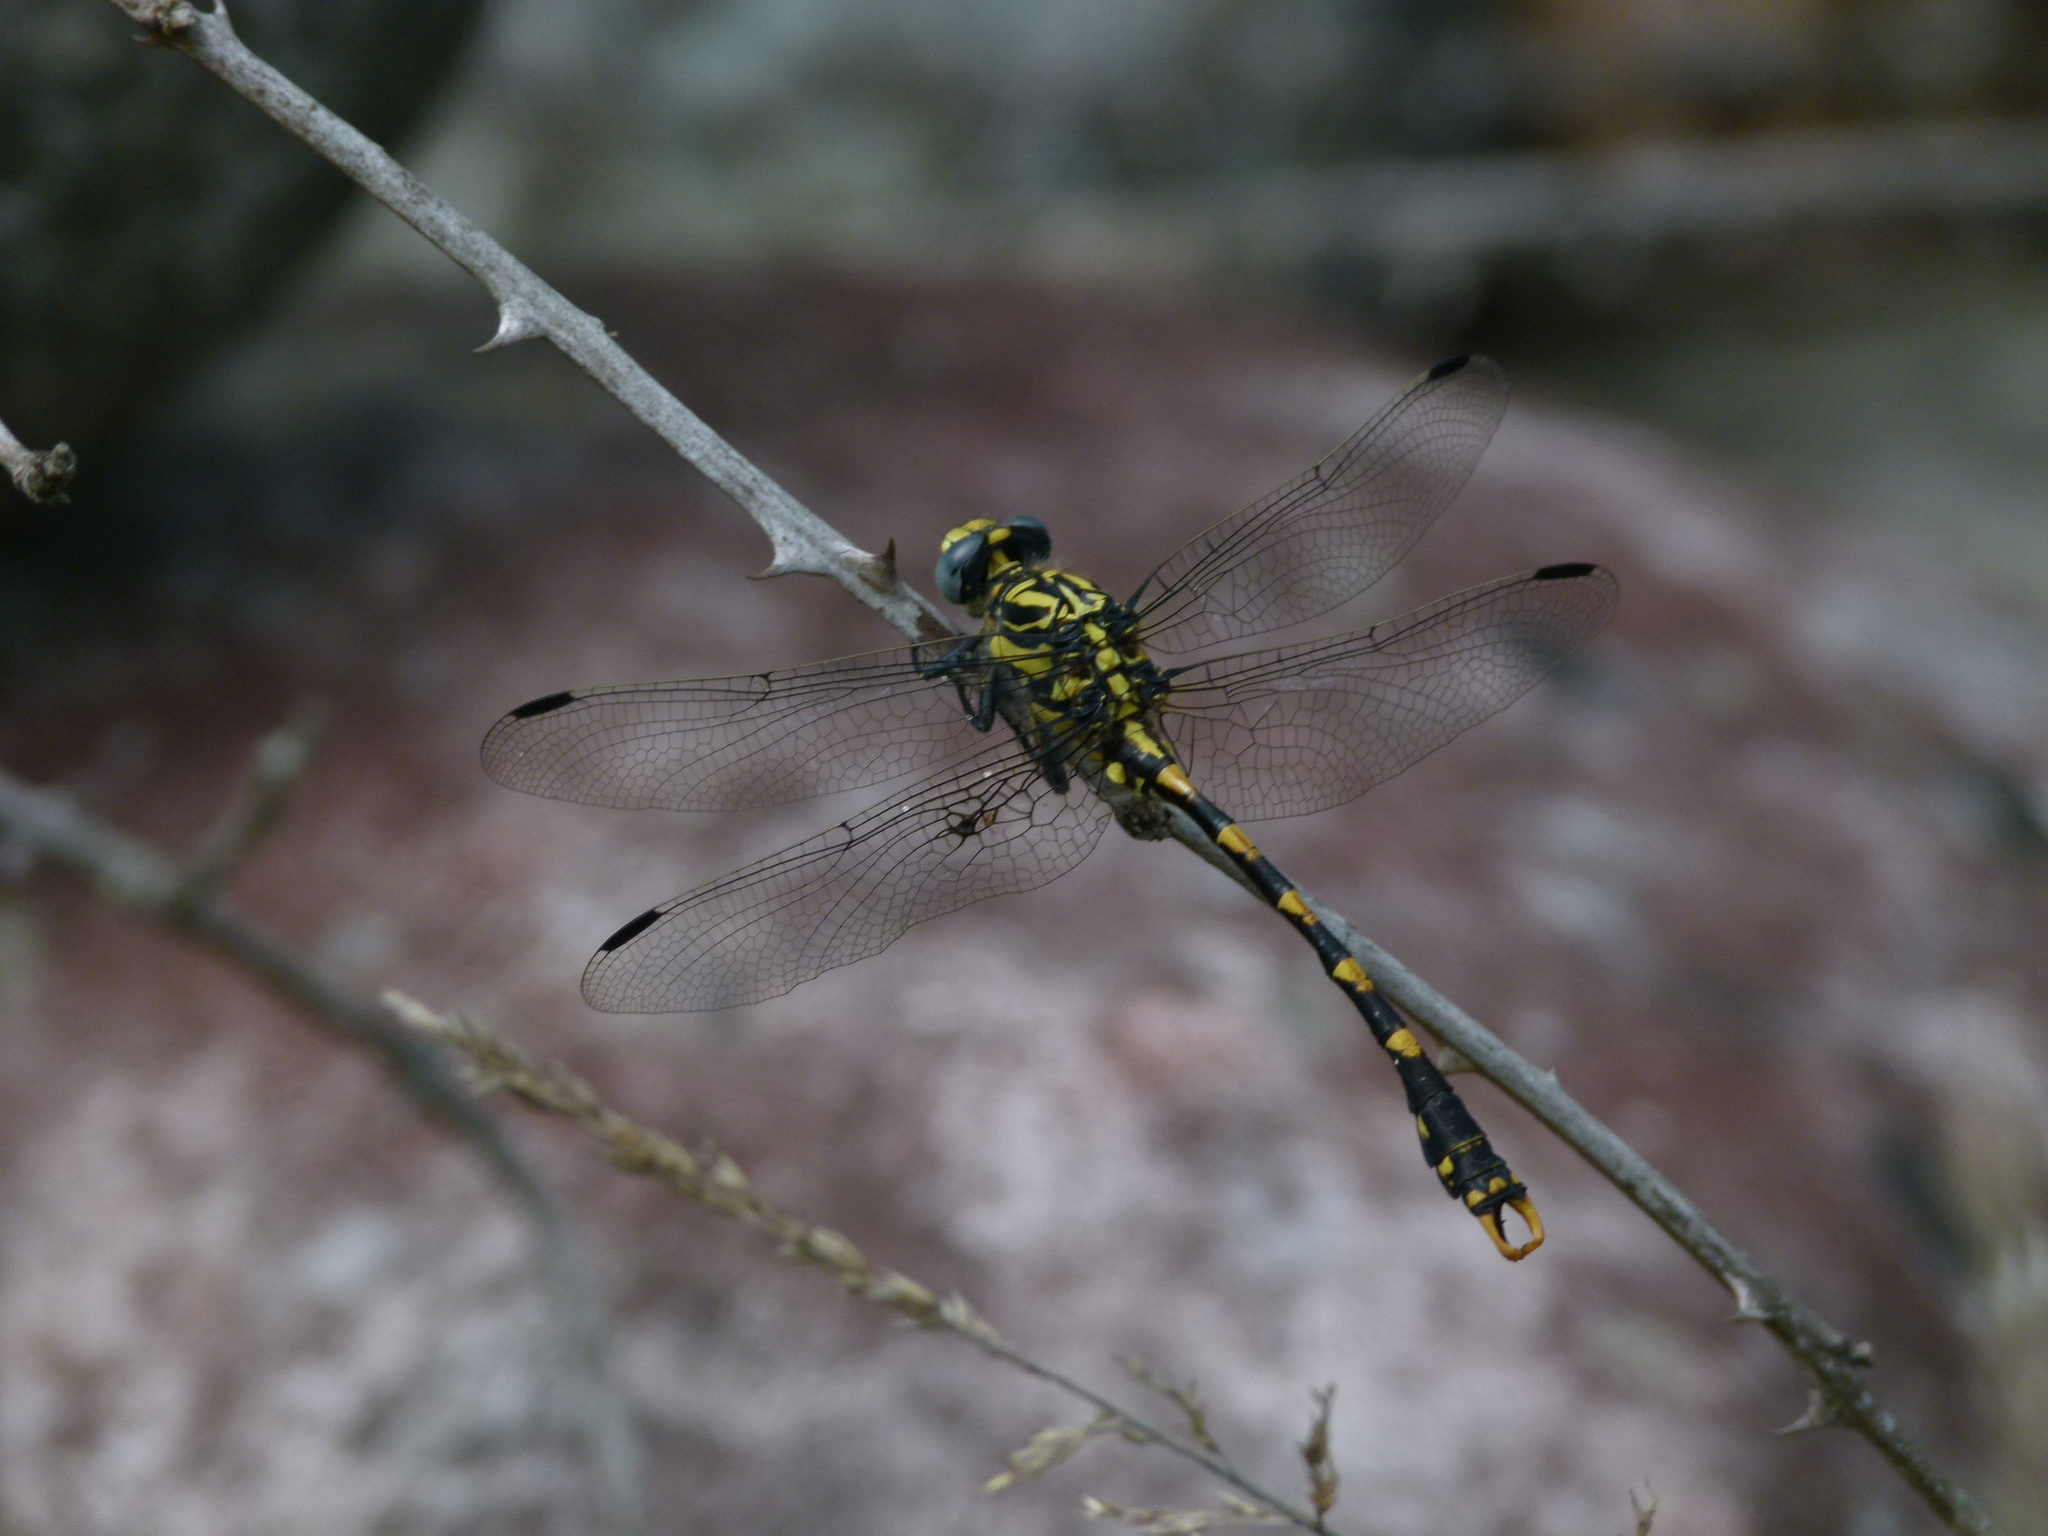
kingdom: Animalia
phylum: Arthropoda
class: Insecta
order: Odonata
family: Gomphidae
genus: Onychogomphus
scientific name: Onychogomphus uncatus
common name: Large pincertail
